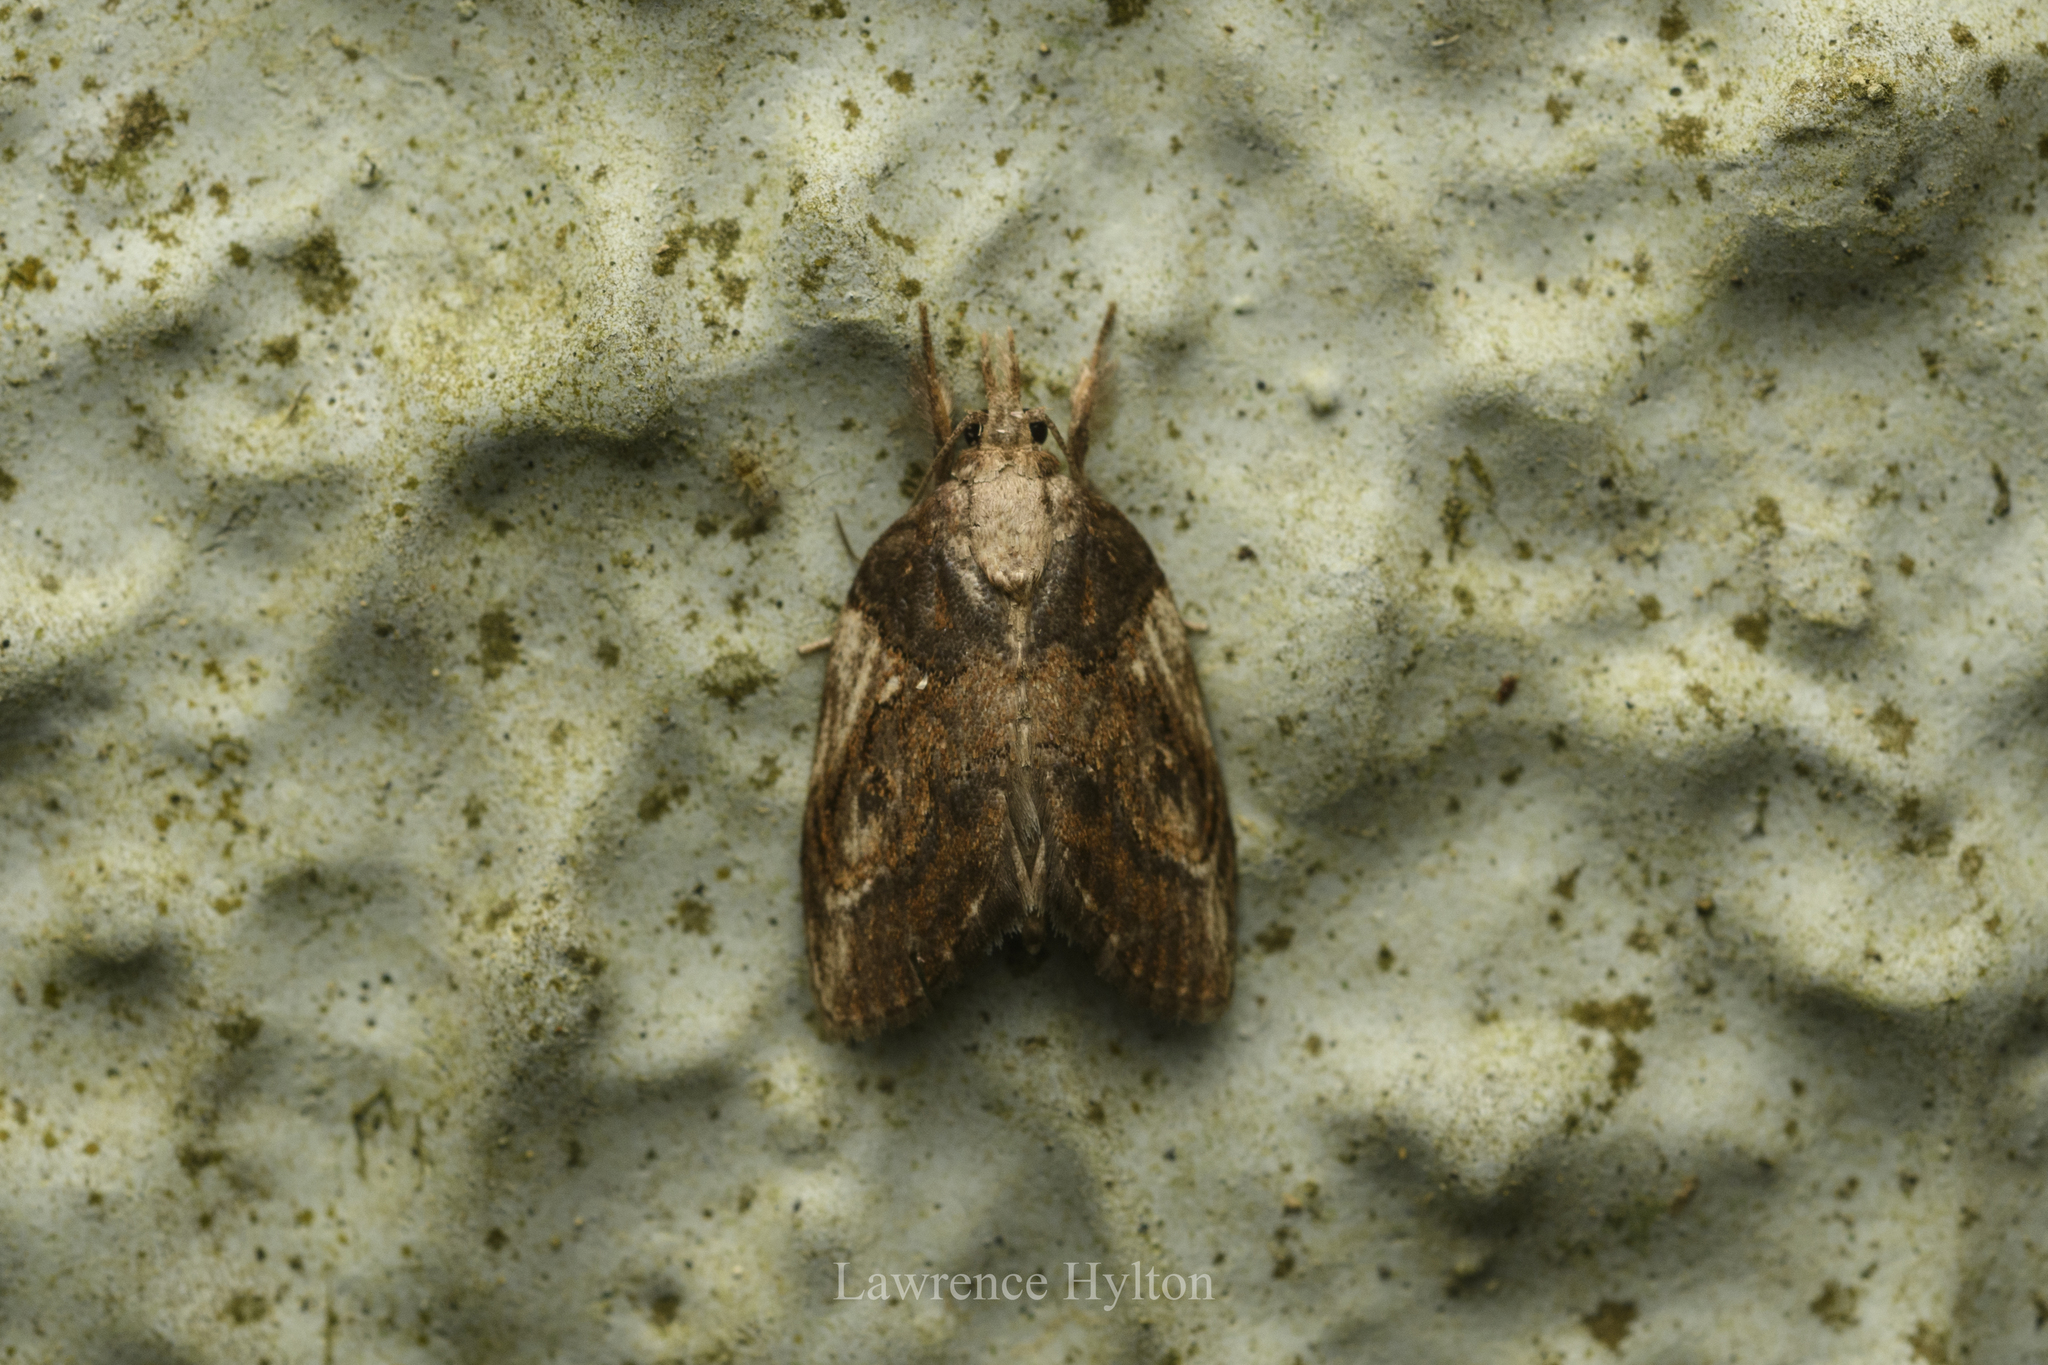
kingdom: Animalia
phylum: Arthropoda
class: Insecta
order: Lepidoptera
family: Nolidae
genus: Selepa
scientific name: Selepa molybdea
